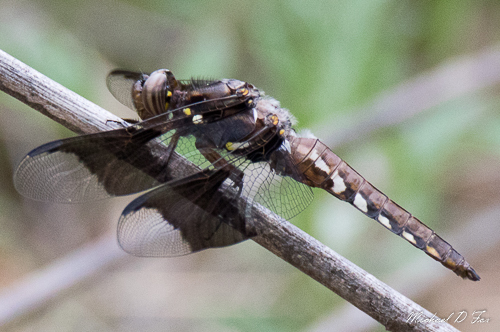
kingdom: Animalia
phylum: Arthropoda
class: Insecta
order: Odonata
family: Libellulidae
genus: Plathemis
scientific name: Plathemis lydia
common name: Common whitetail
